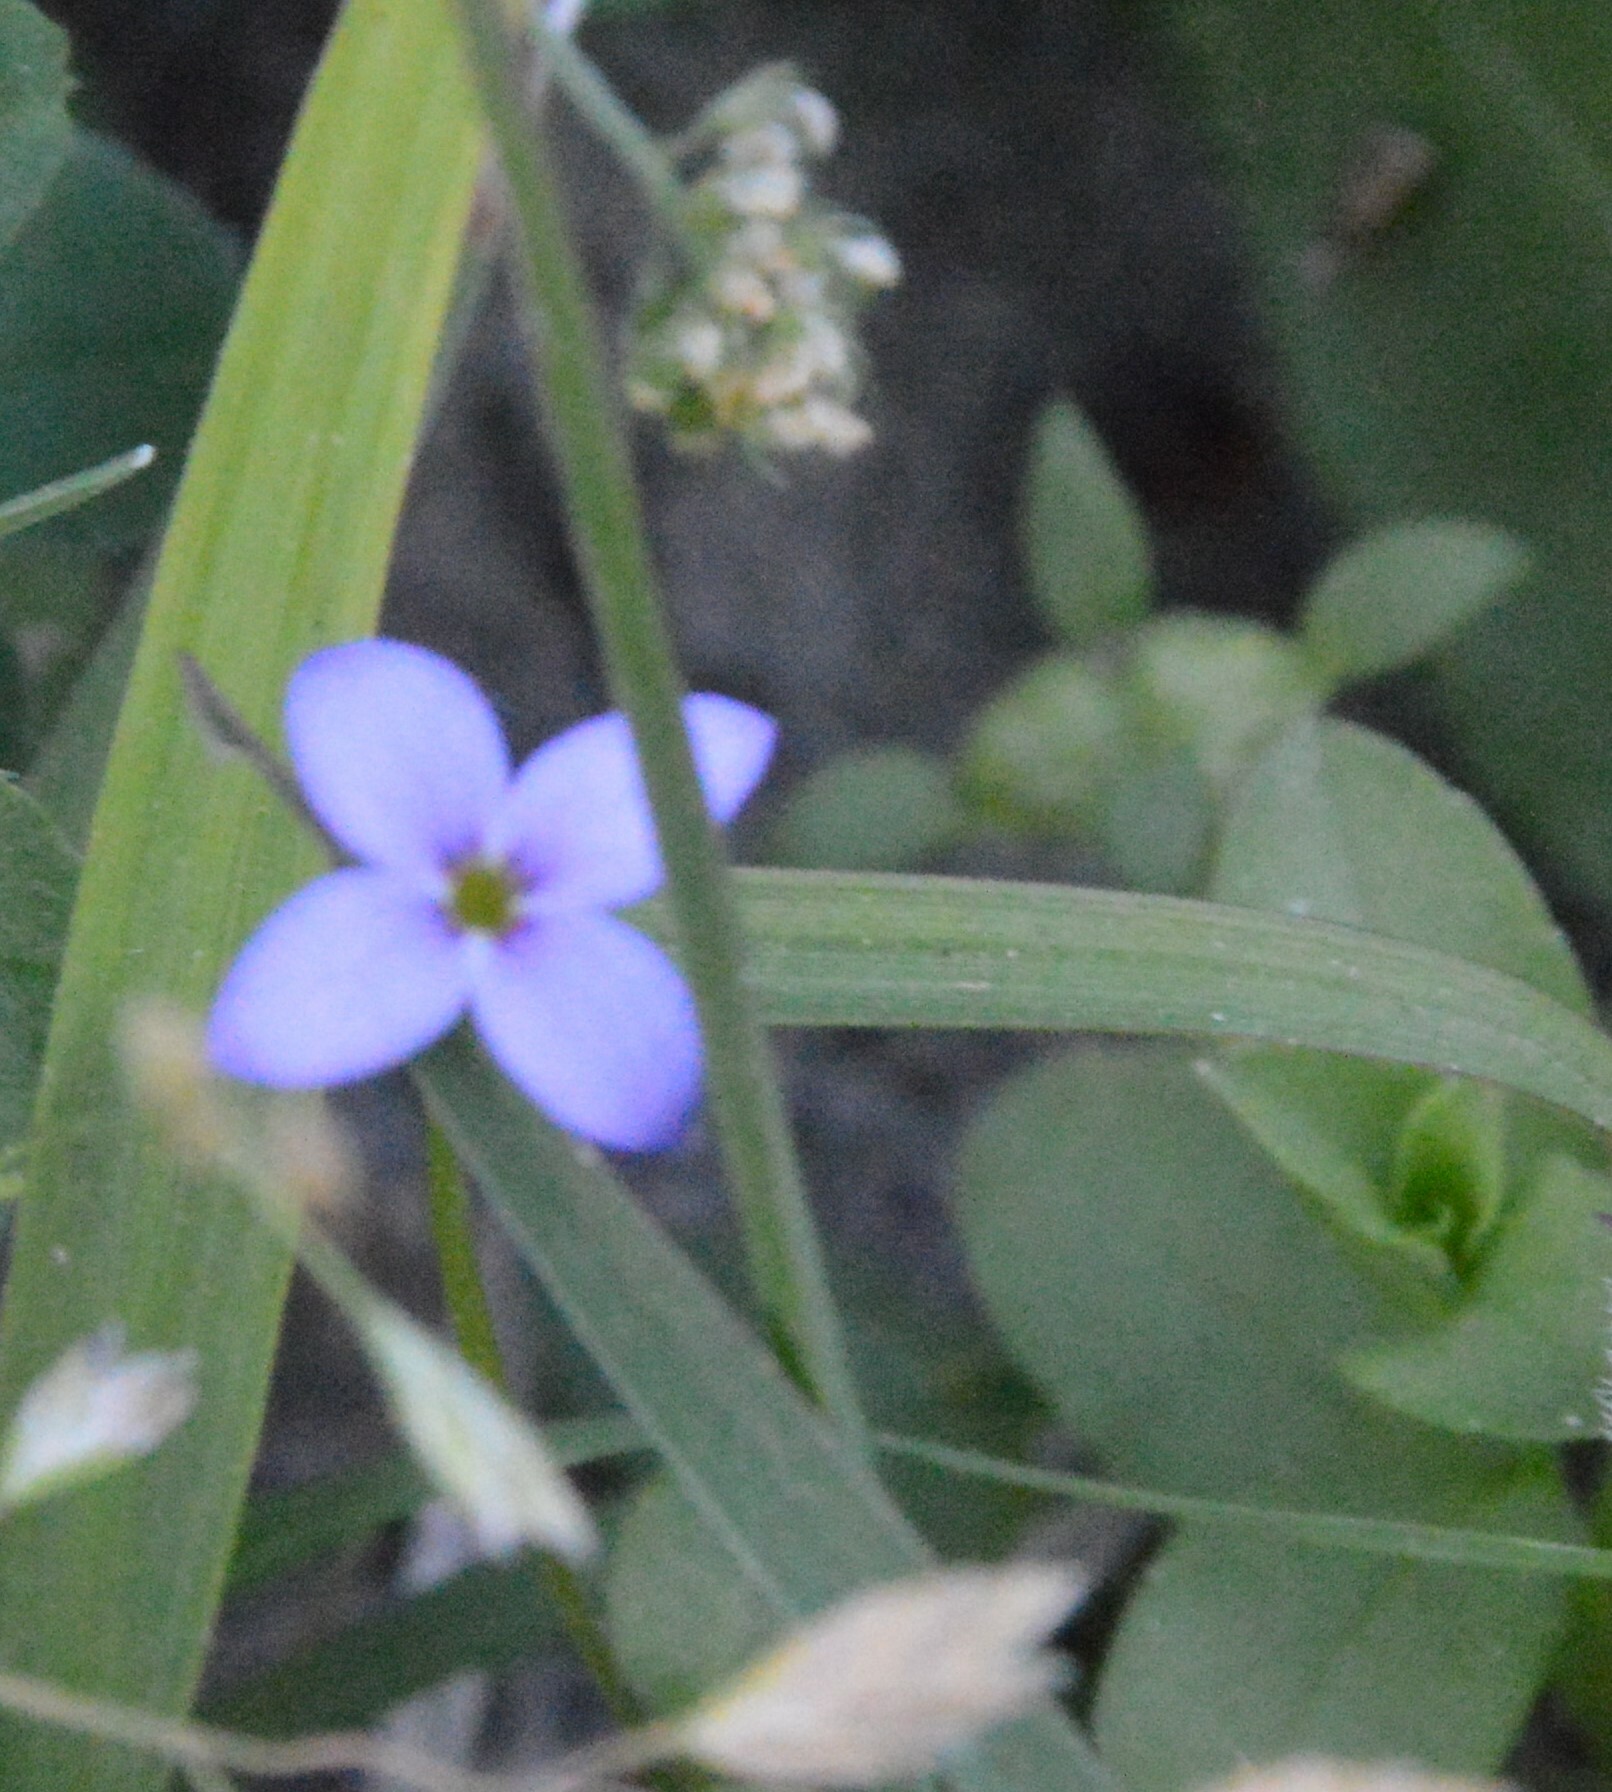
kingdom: Plantae
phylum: Tracheophyta
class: Magnoliopsida
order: Gentianales
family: Rubiaceae
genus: Houstonia
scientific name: Houstonia pusilla
